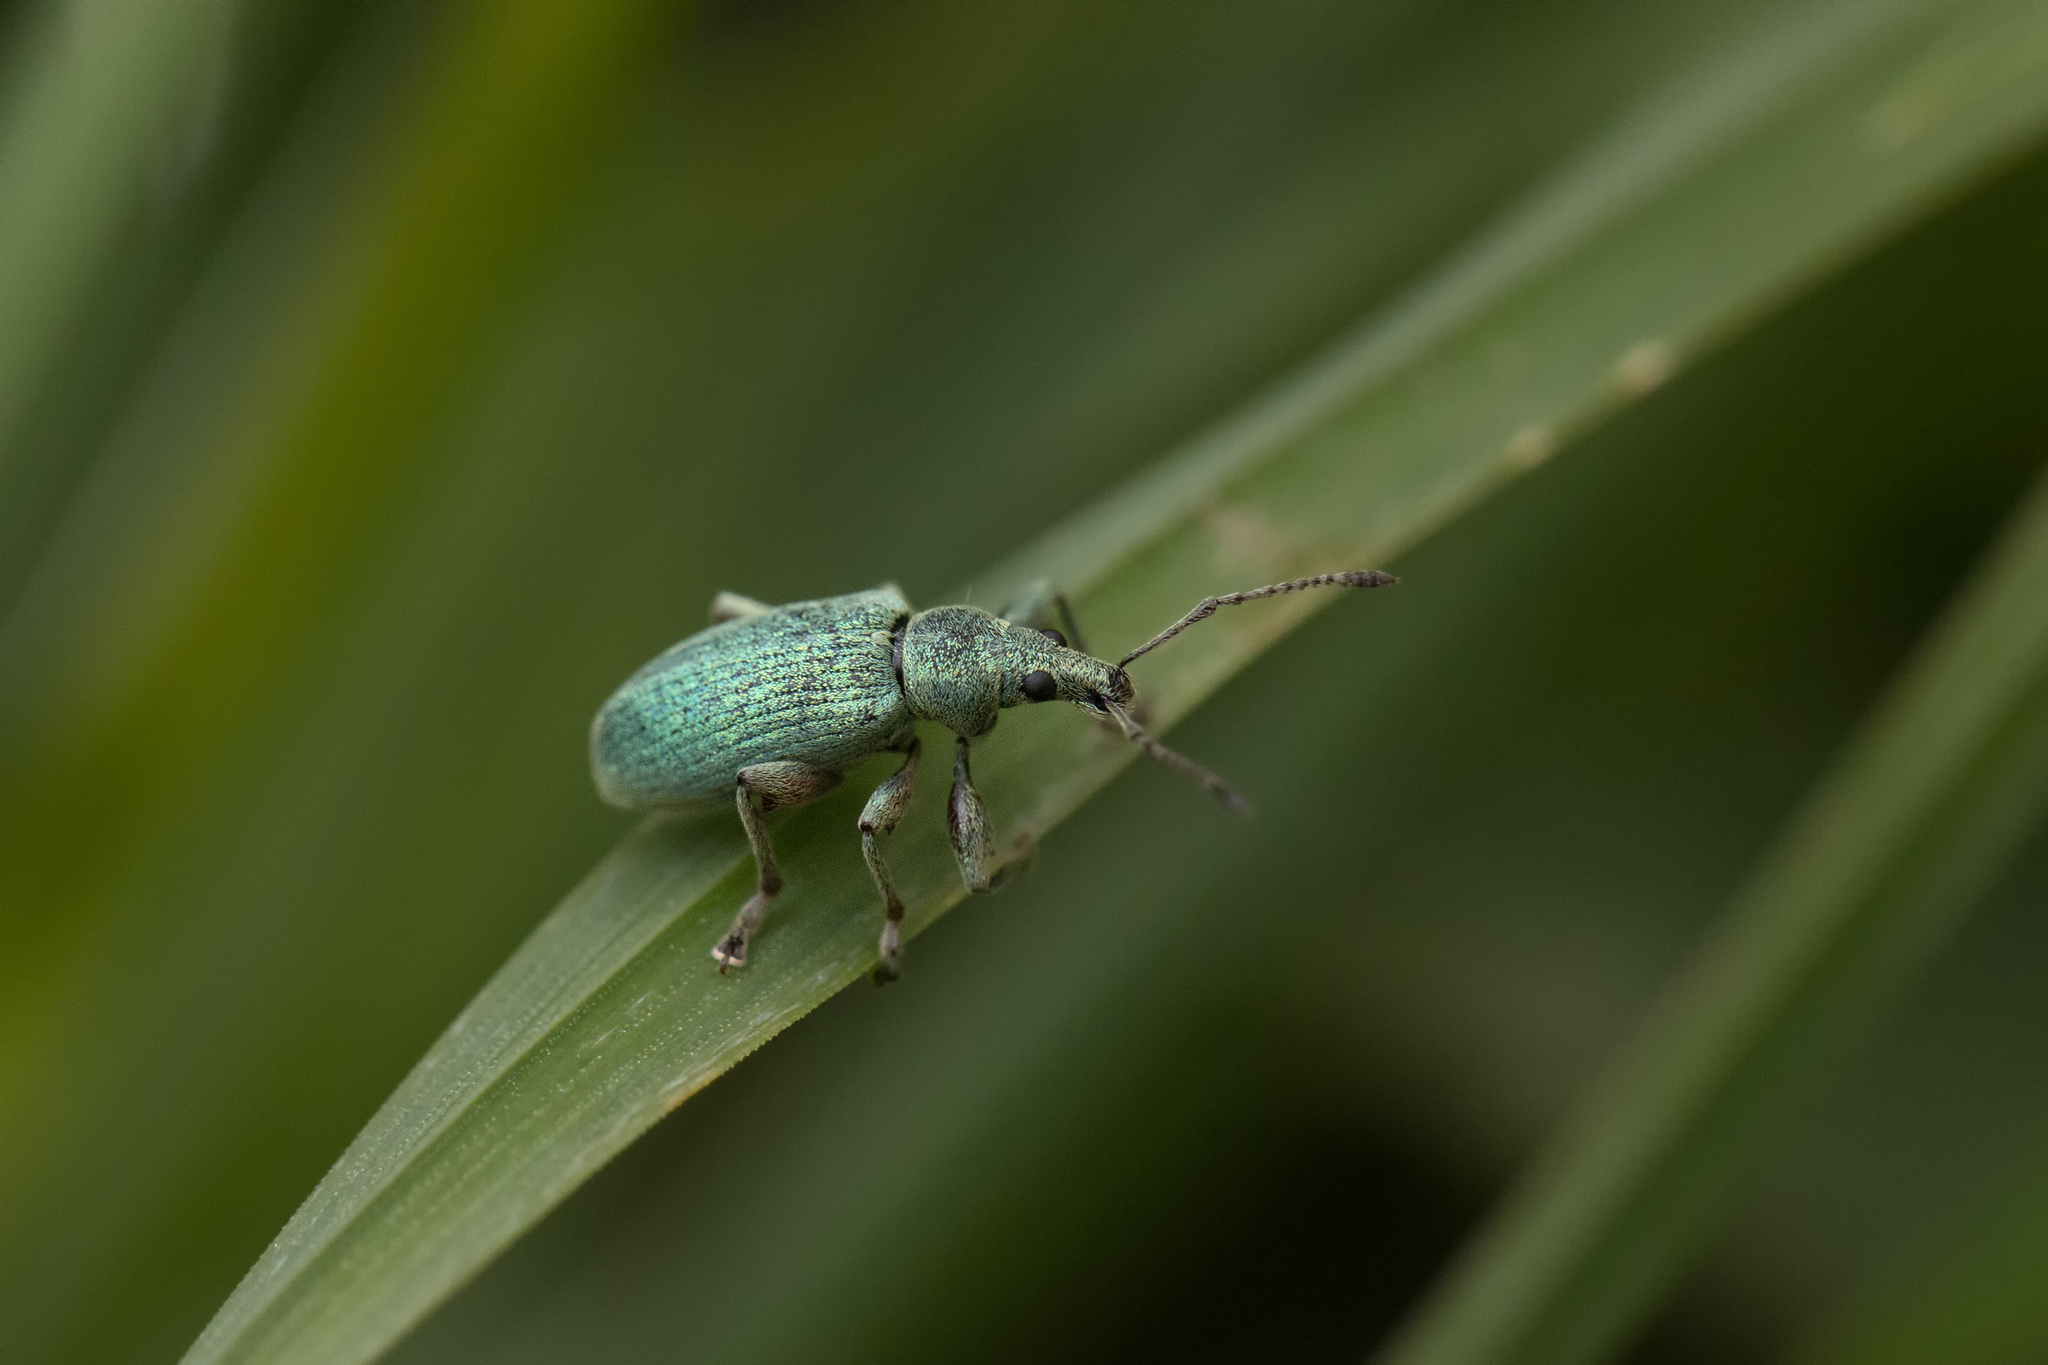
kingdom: Animalia
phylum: Arthropoda
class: Insecta
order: Coleoptera
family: Curculionidae
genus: Phyllobius
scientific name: Phyllobius pomaceus
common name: Green nettle weevil
